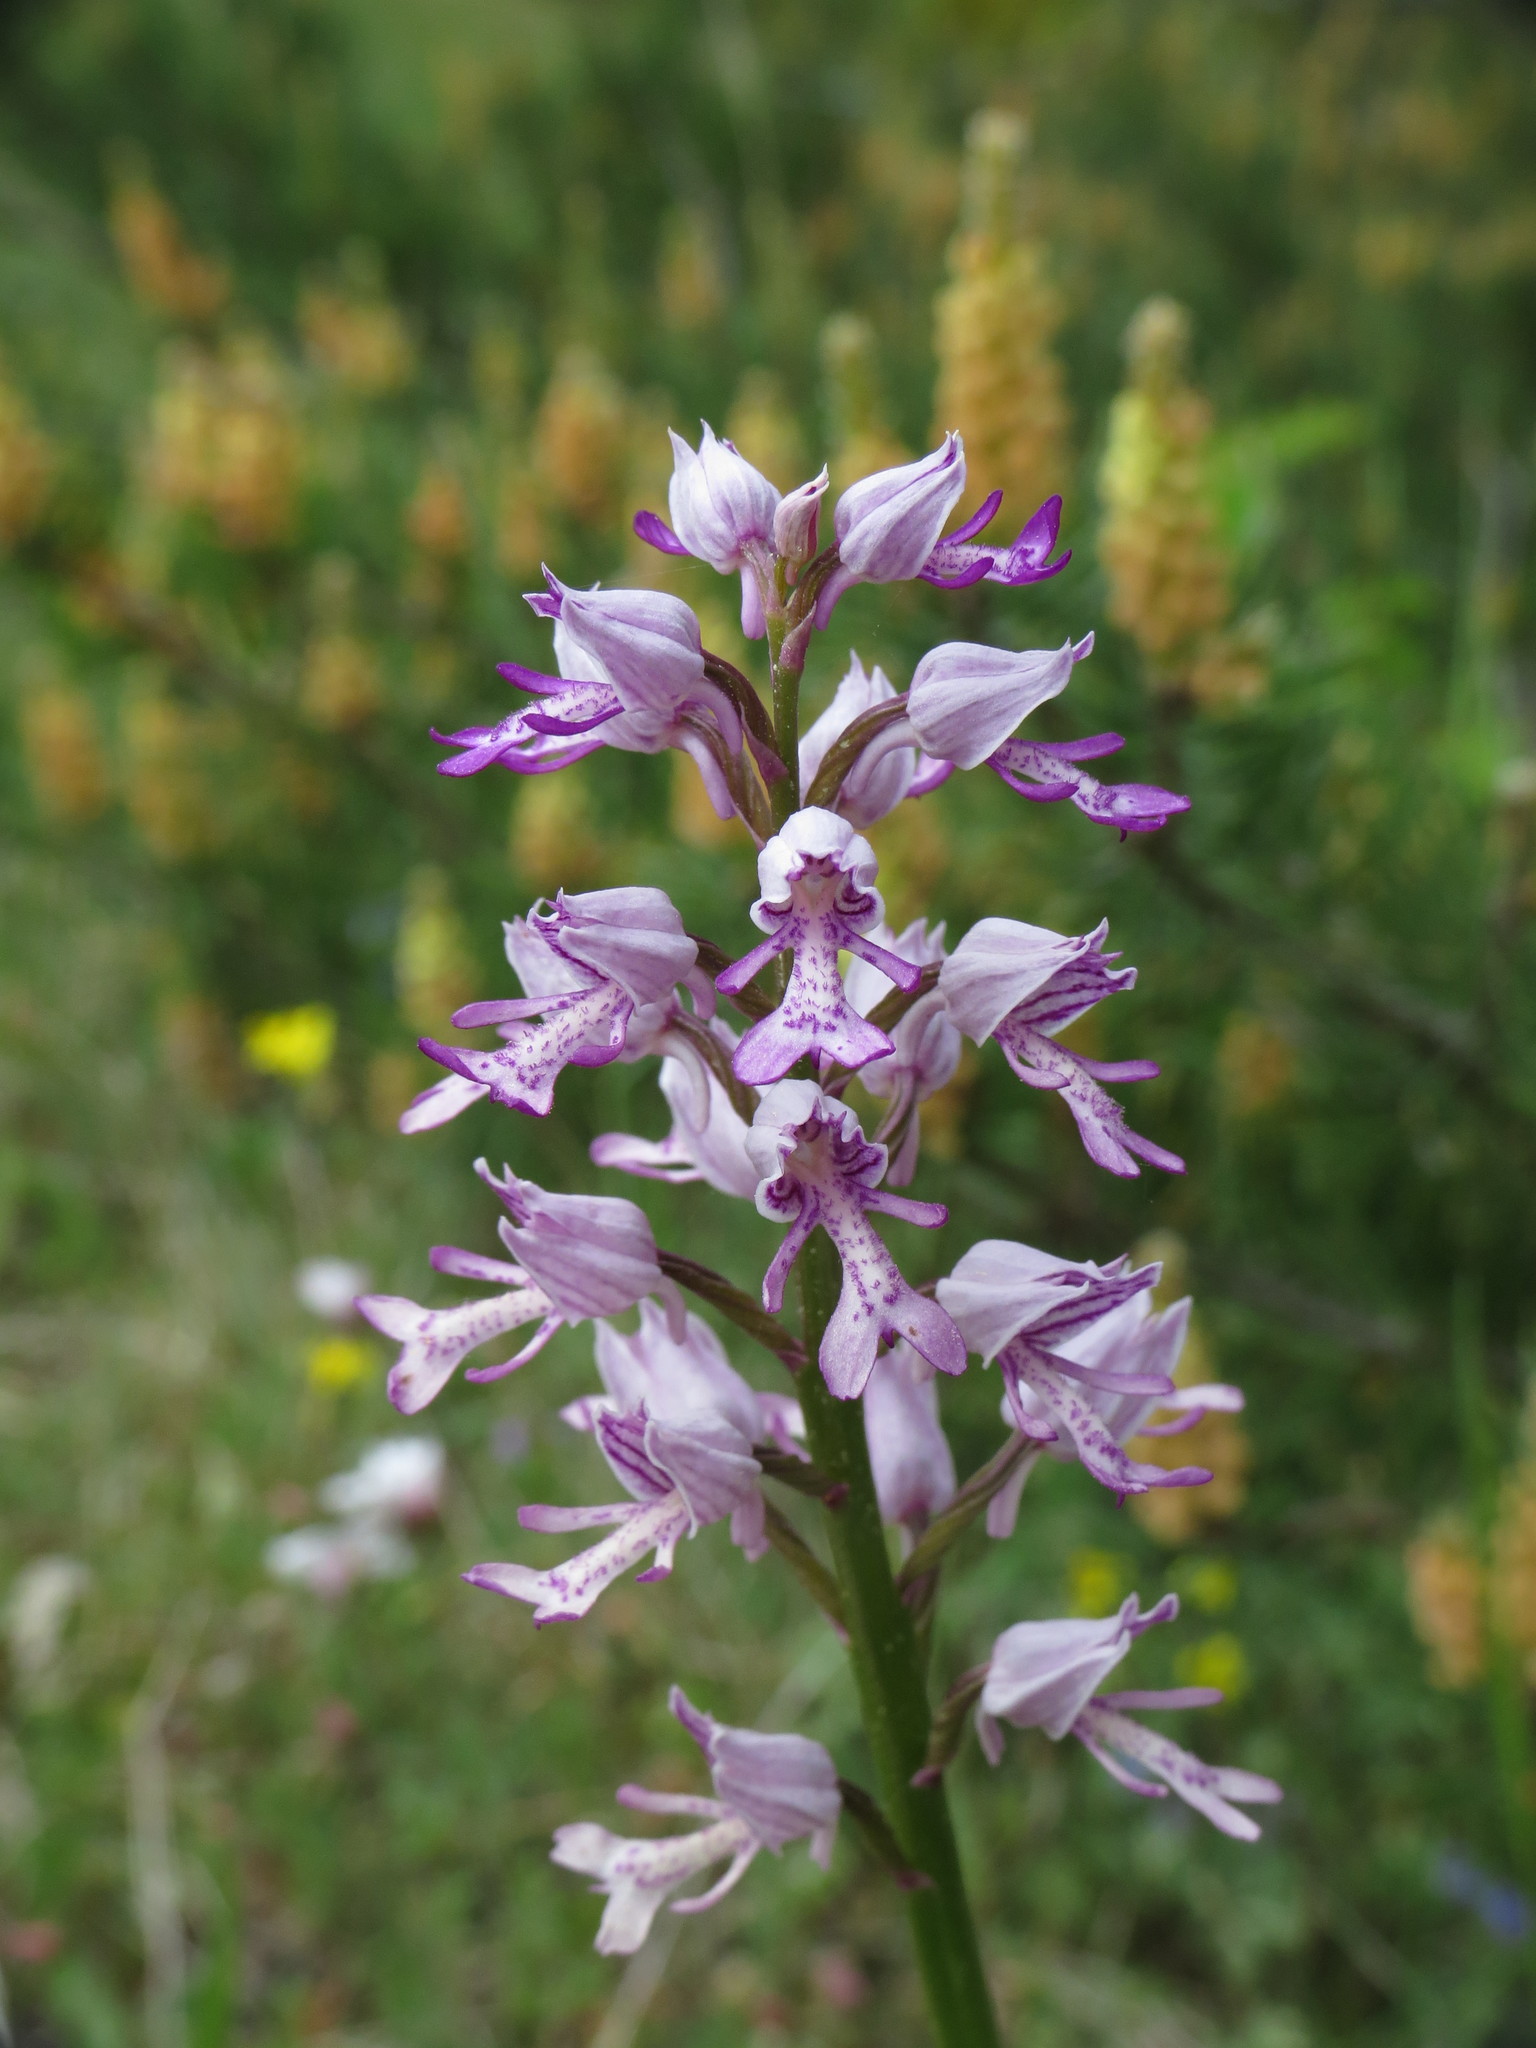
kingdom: Plantae
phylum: Tracheophyta
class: Liliopsida
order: Asparagales
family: Orchidaceae
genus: Orchis
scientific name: Orchis militaris
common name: Military orchid
